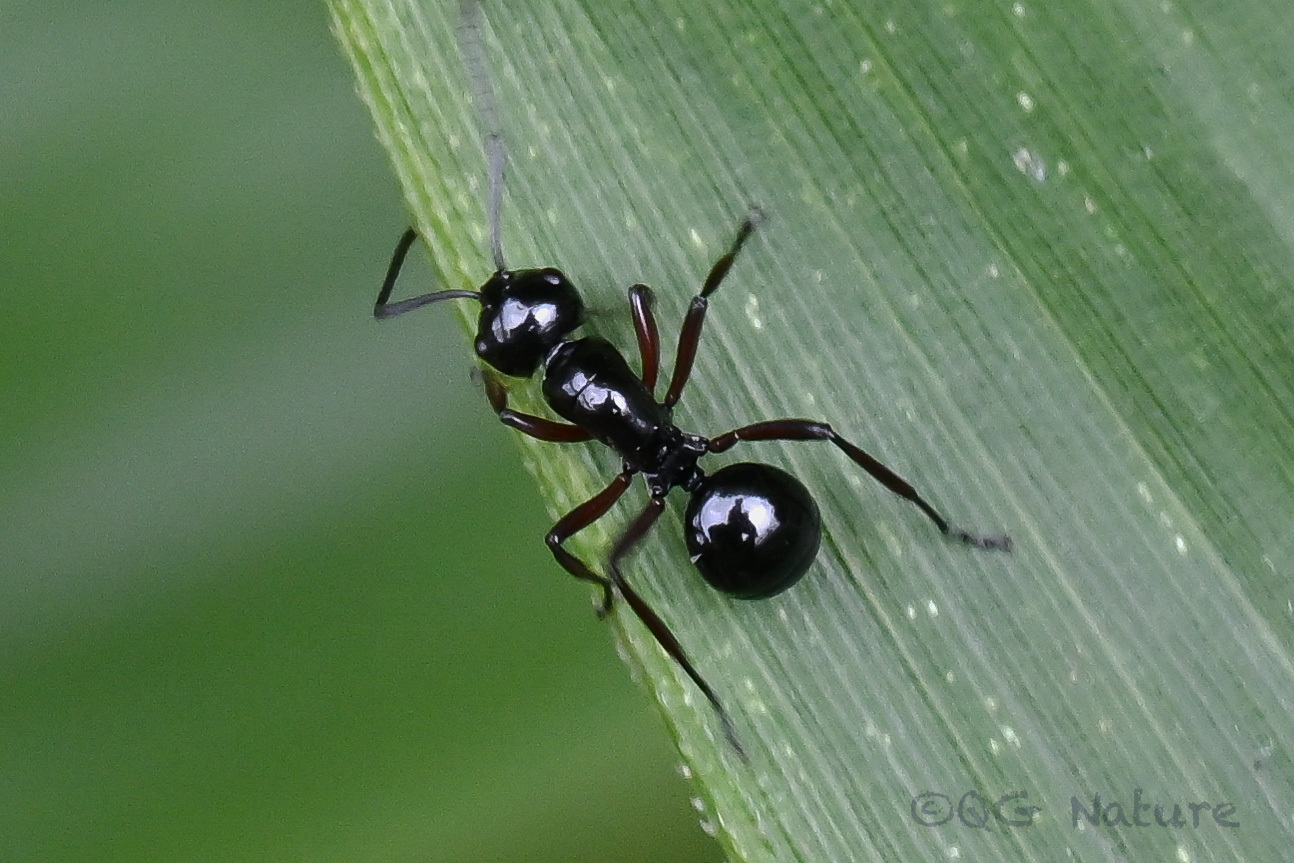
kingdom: Animalia
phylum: Arthropoda
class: Insecta
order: Hymenoptera
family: Formicidae
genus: Polyrhachis
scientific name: Polyrhachis rastellata
